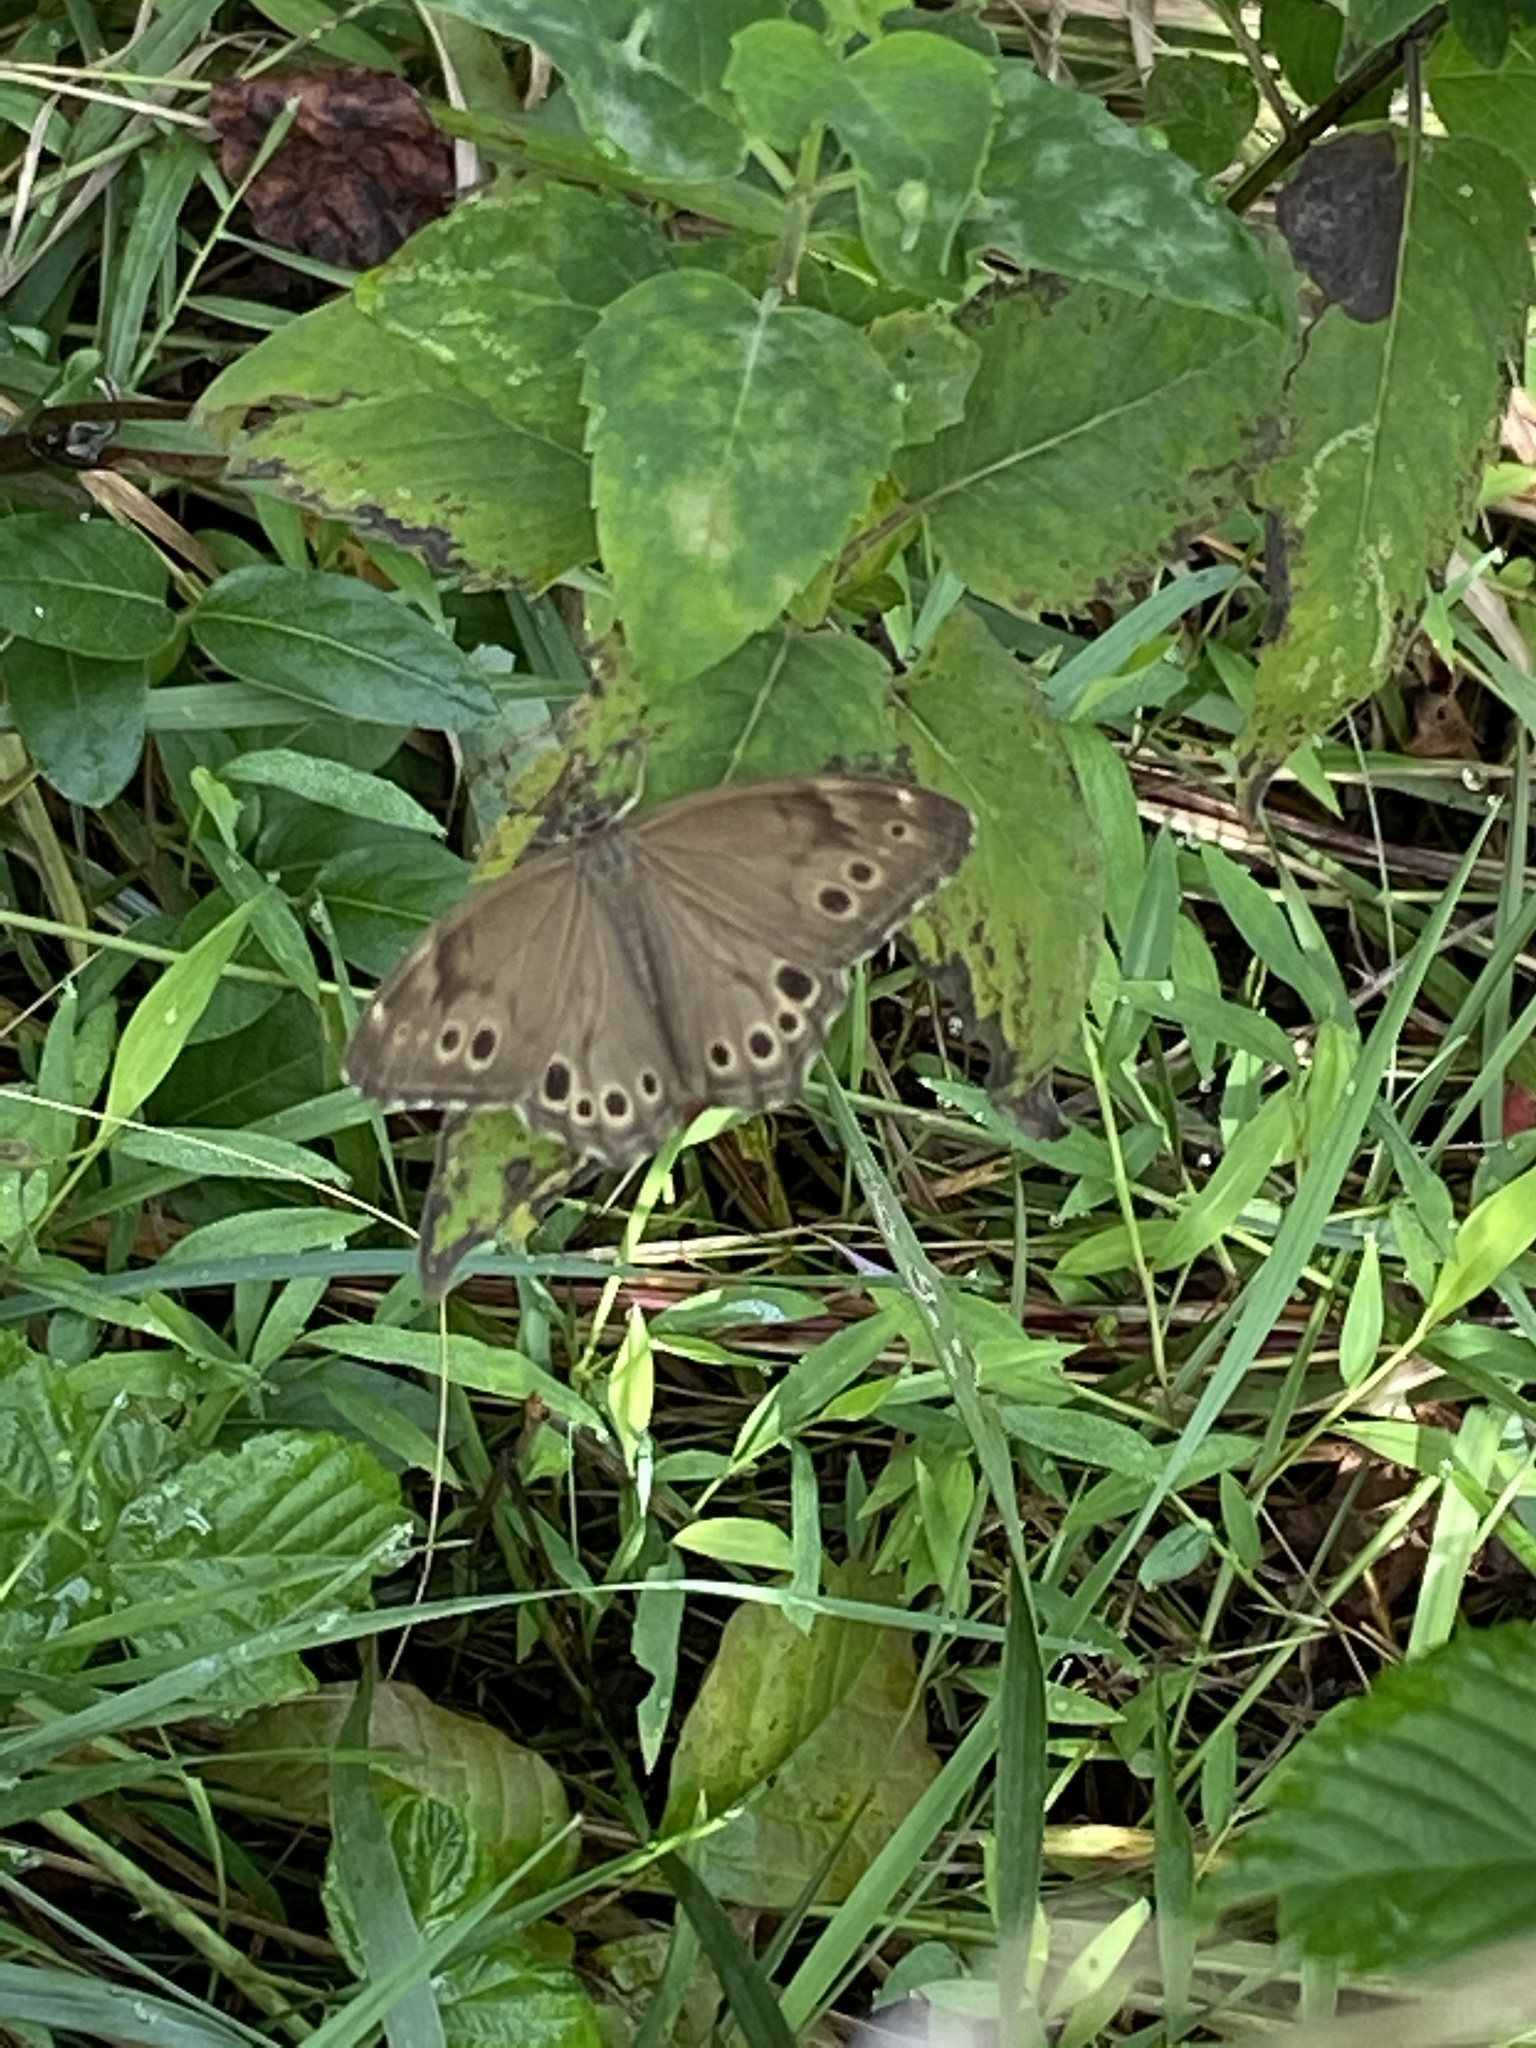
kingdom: Animalia
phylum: Arthropoda
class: Insecta
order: Lepidoptera
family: Nymphalidae
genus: Lethe
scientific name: Lethe anthedon
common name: Northern pearly-eye
